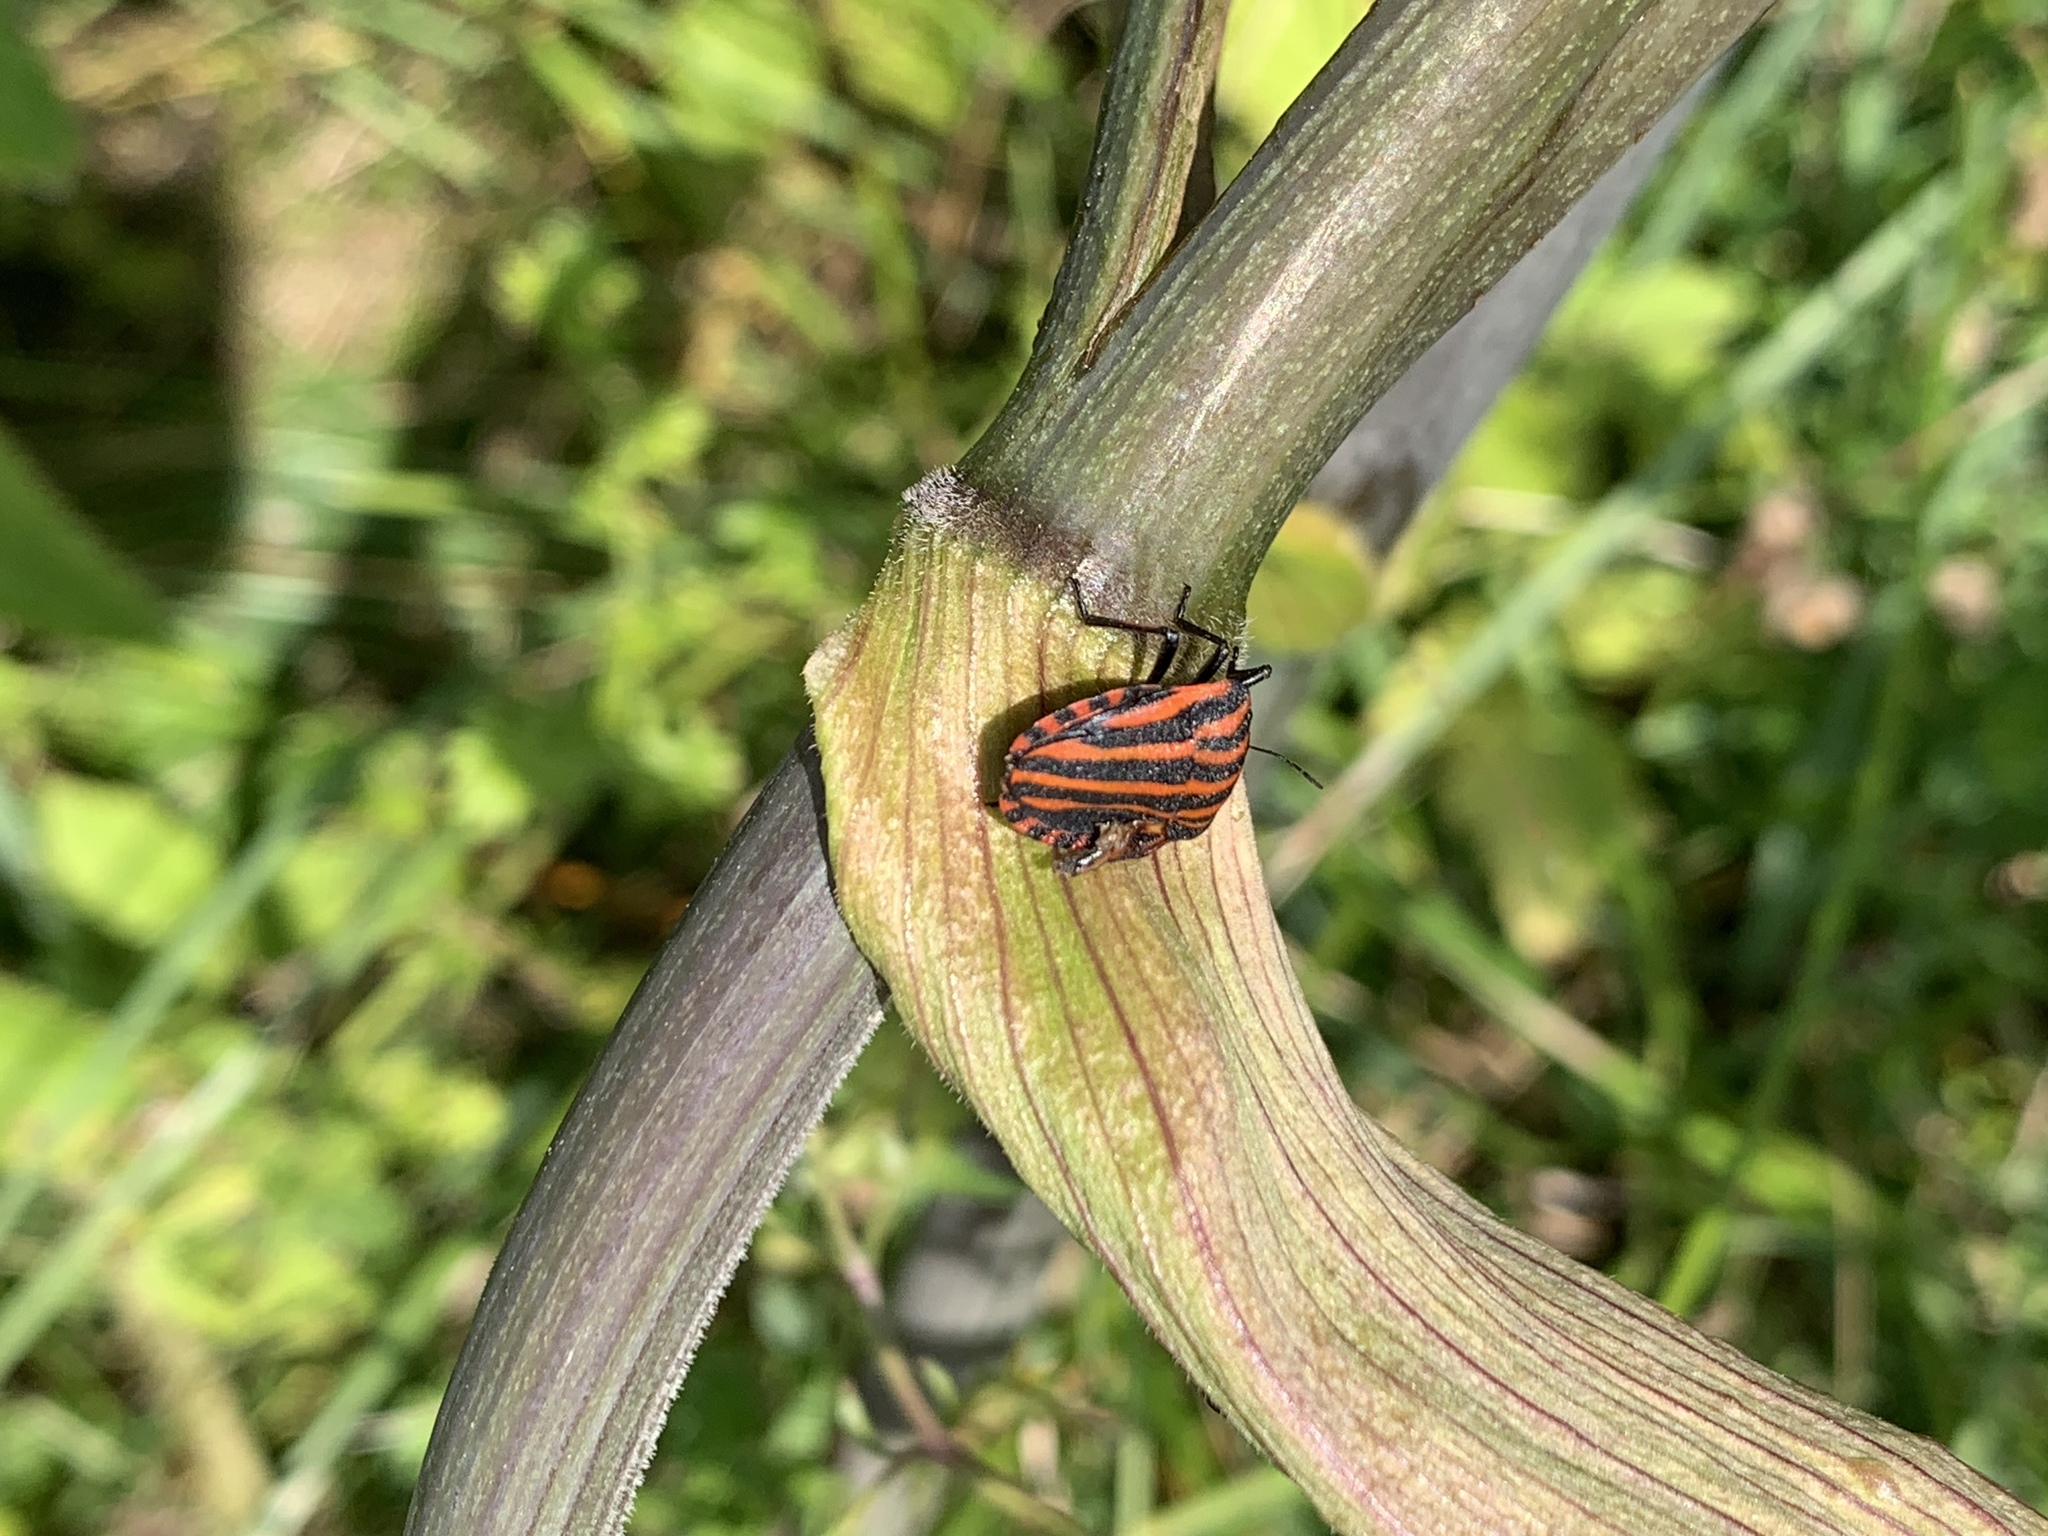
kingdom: Animalia
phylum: Arthropoda
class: Insecta
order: Hemiptera
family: Pentatomidae
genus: Graphosoma
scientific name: Graphosoma italicum
